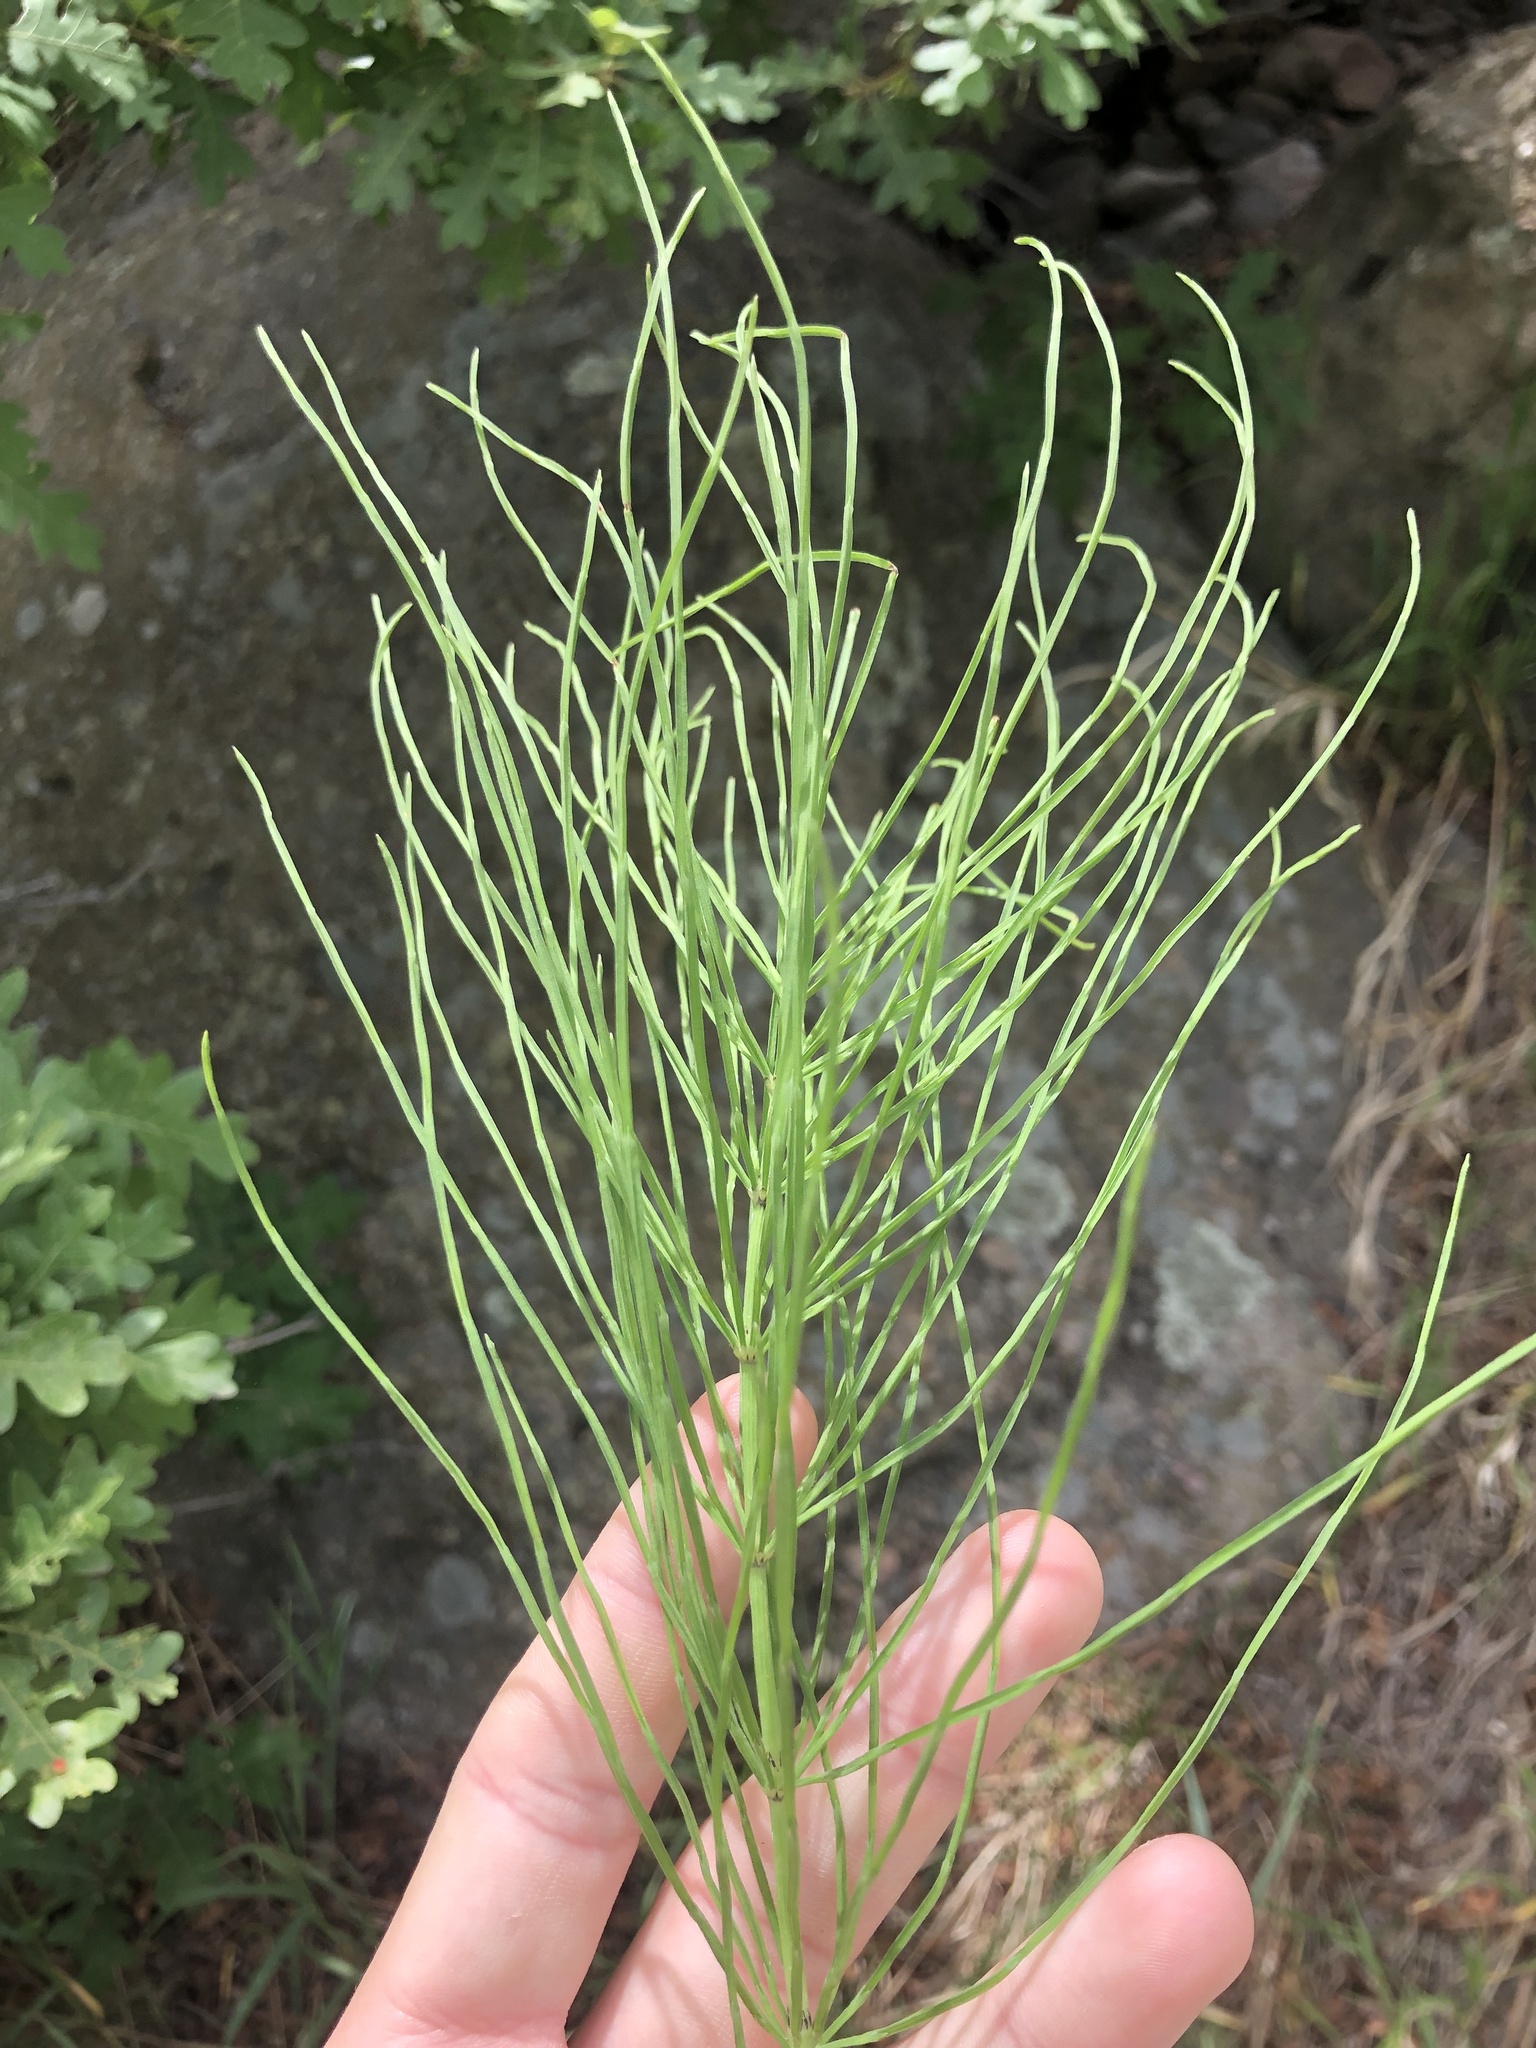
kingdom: Plantae
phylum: Tracheophyta
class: Polypodiopsida
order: Equisetales
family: Equisetaceae
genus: Equisetum
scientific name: Equisetum arvense
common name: Field horsetail
